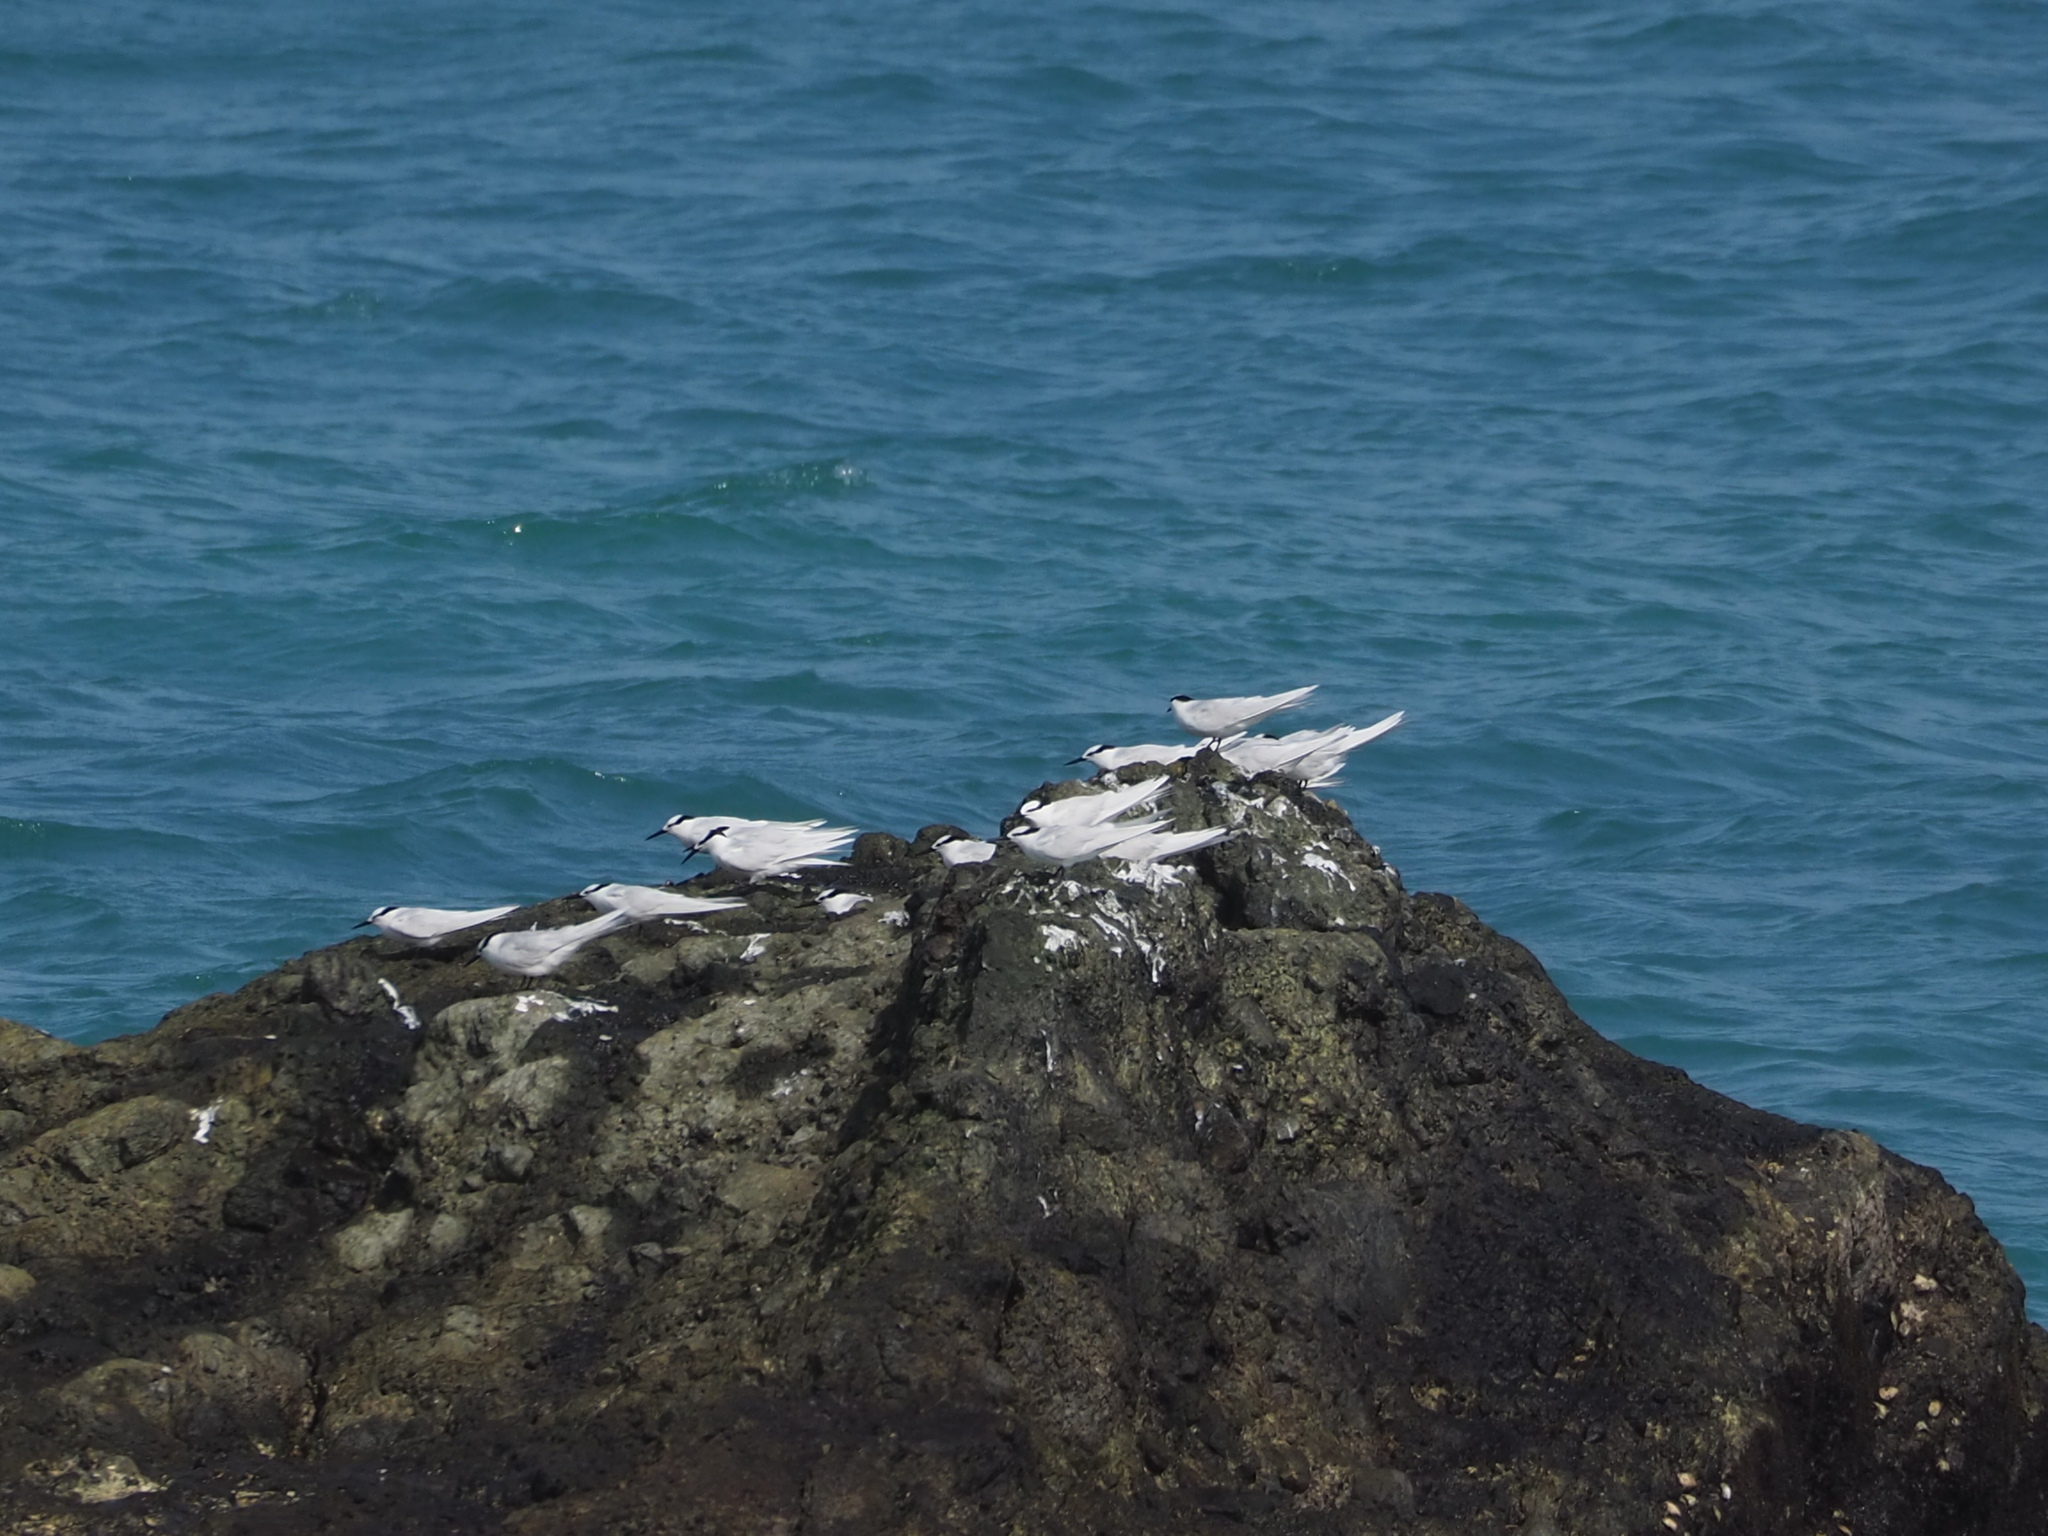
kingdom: Animalia
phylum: Chordata
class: Aves
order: Charadriiformes
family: Laridae
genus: Sterna
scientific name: Sterna sumatrana
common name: Black-naped tern
